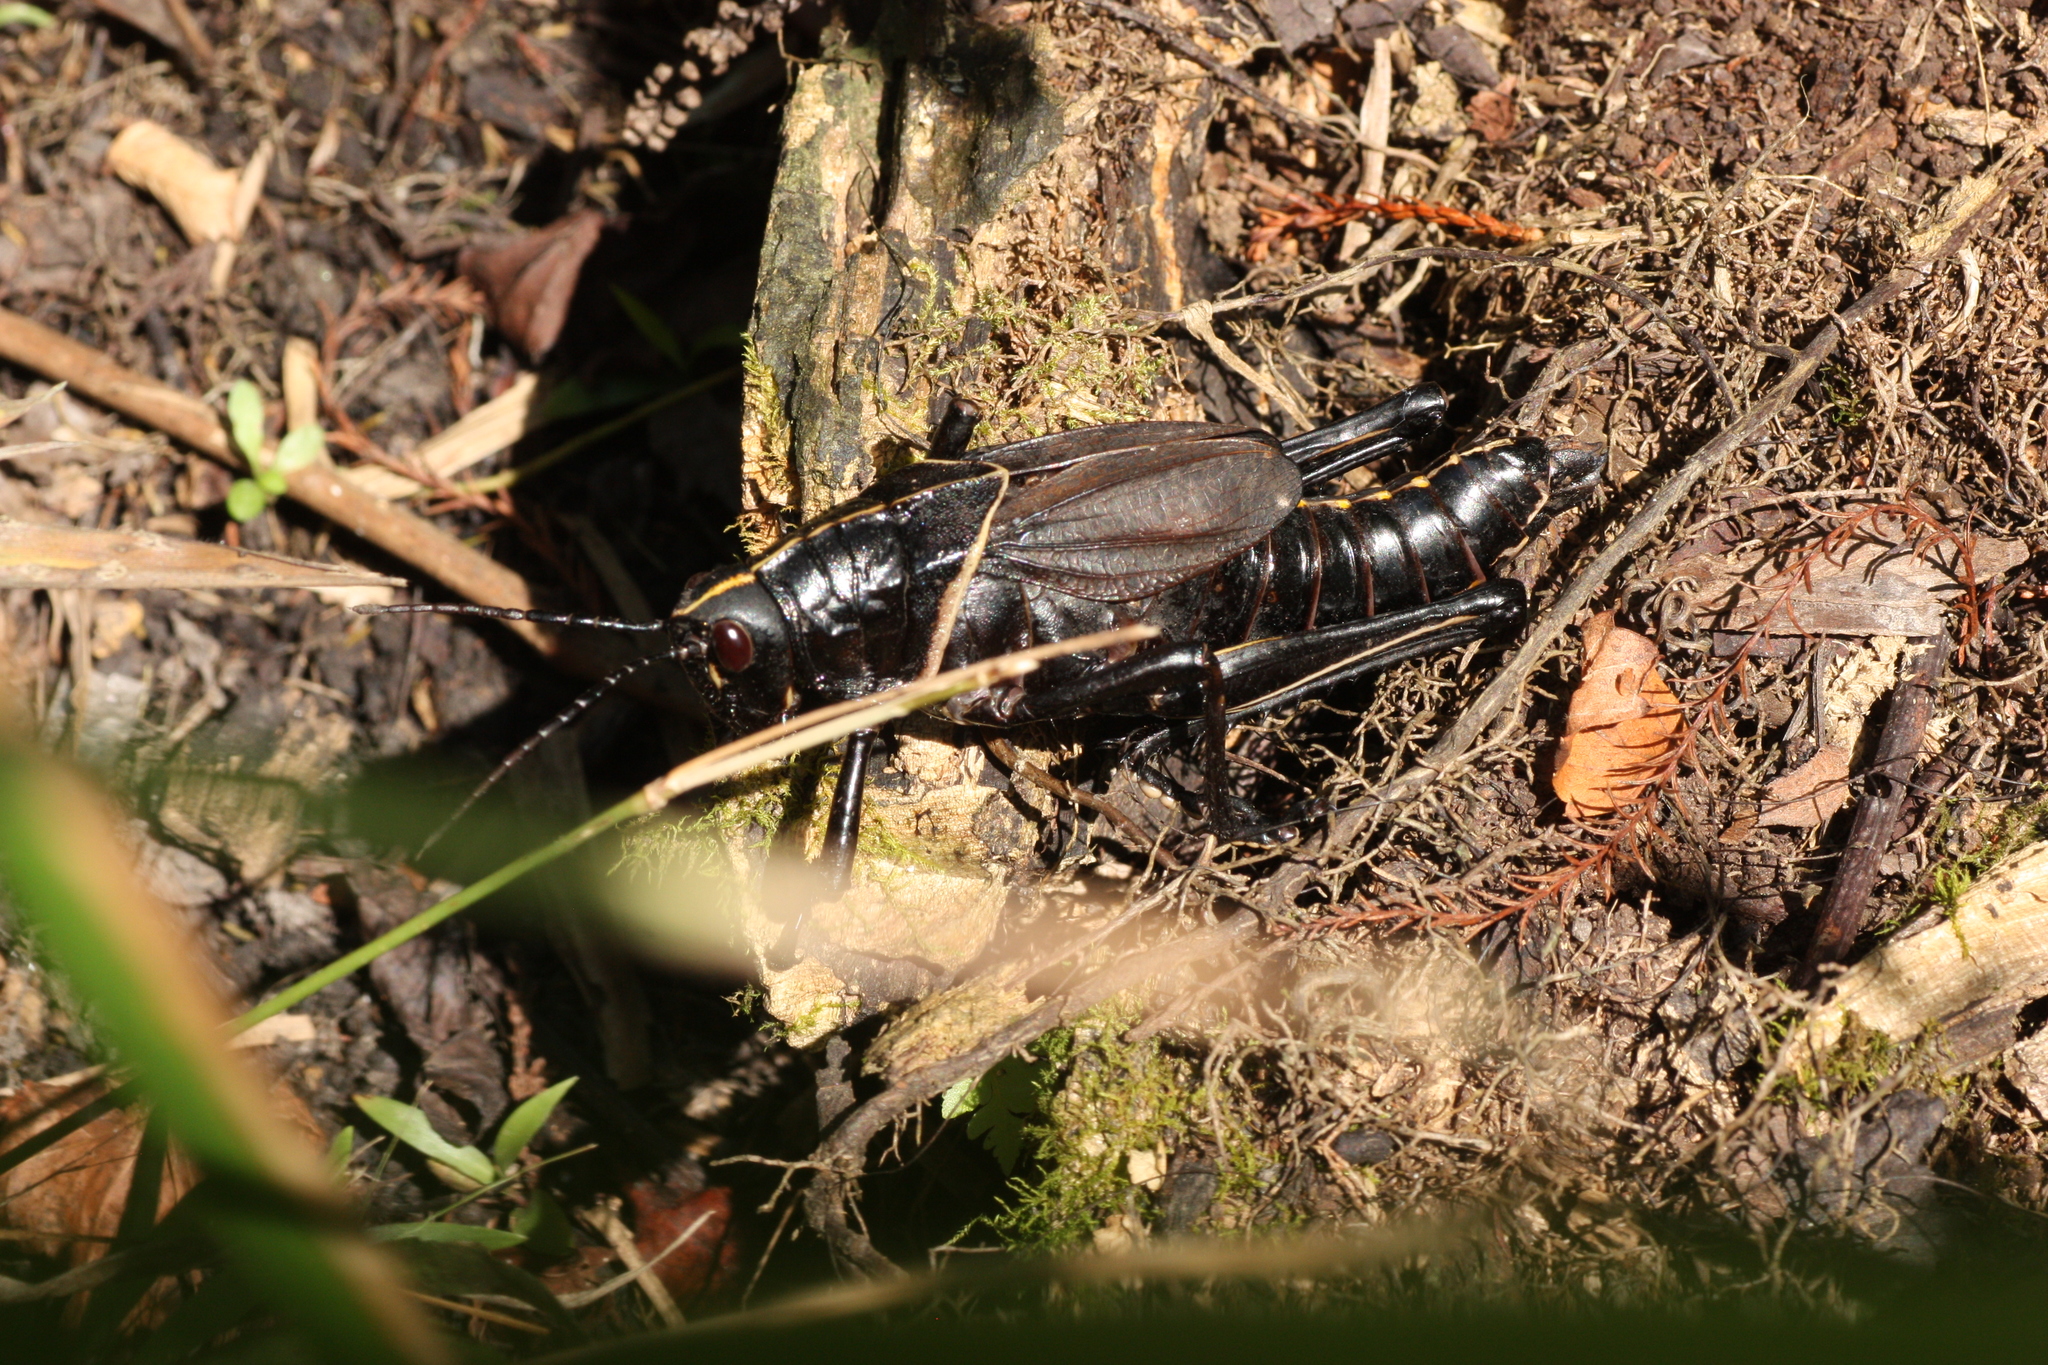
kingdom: Animalia
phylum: Arthropoda
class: Insecta
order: Orthoptera
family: Romaleidae
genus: Romalea
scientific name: Romalea microptera
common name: Eastern lubber grasshopper
